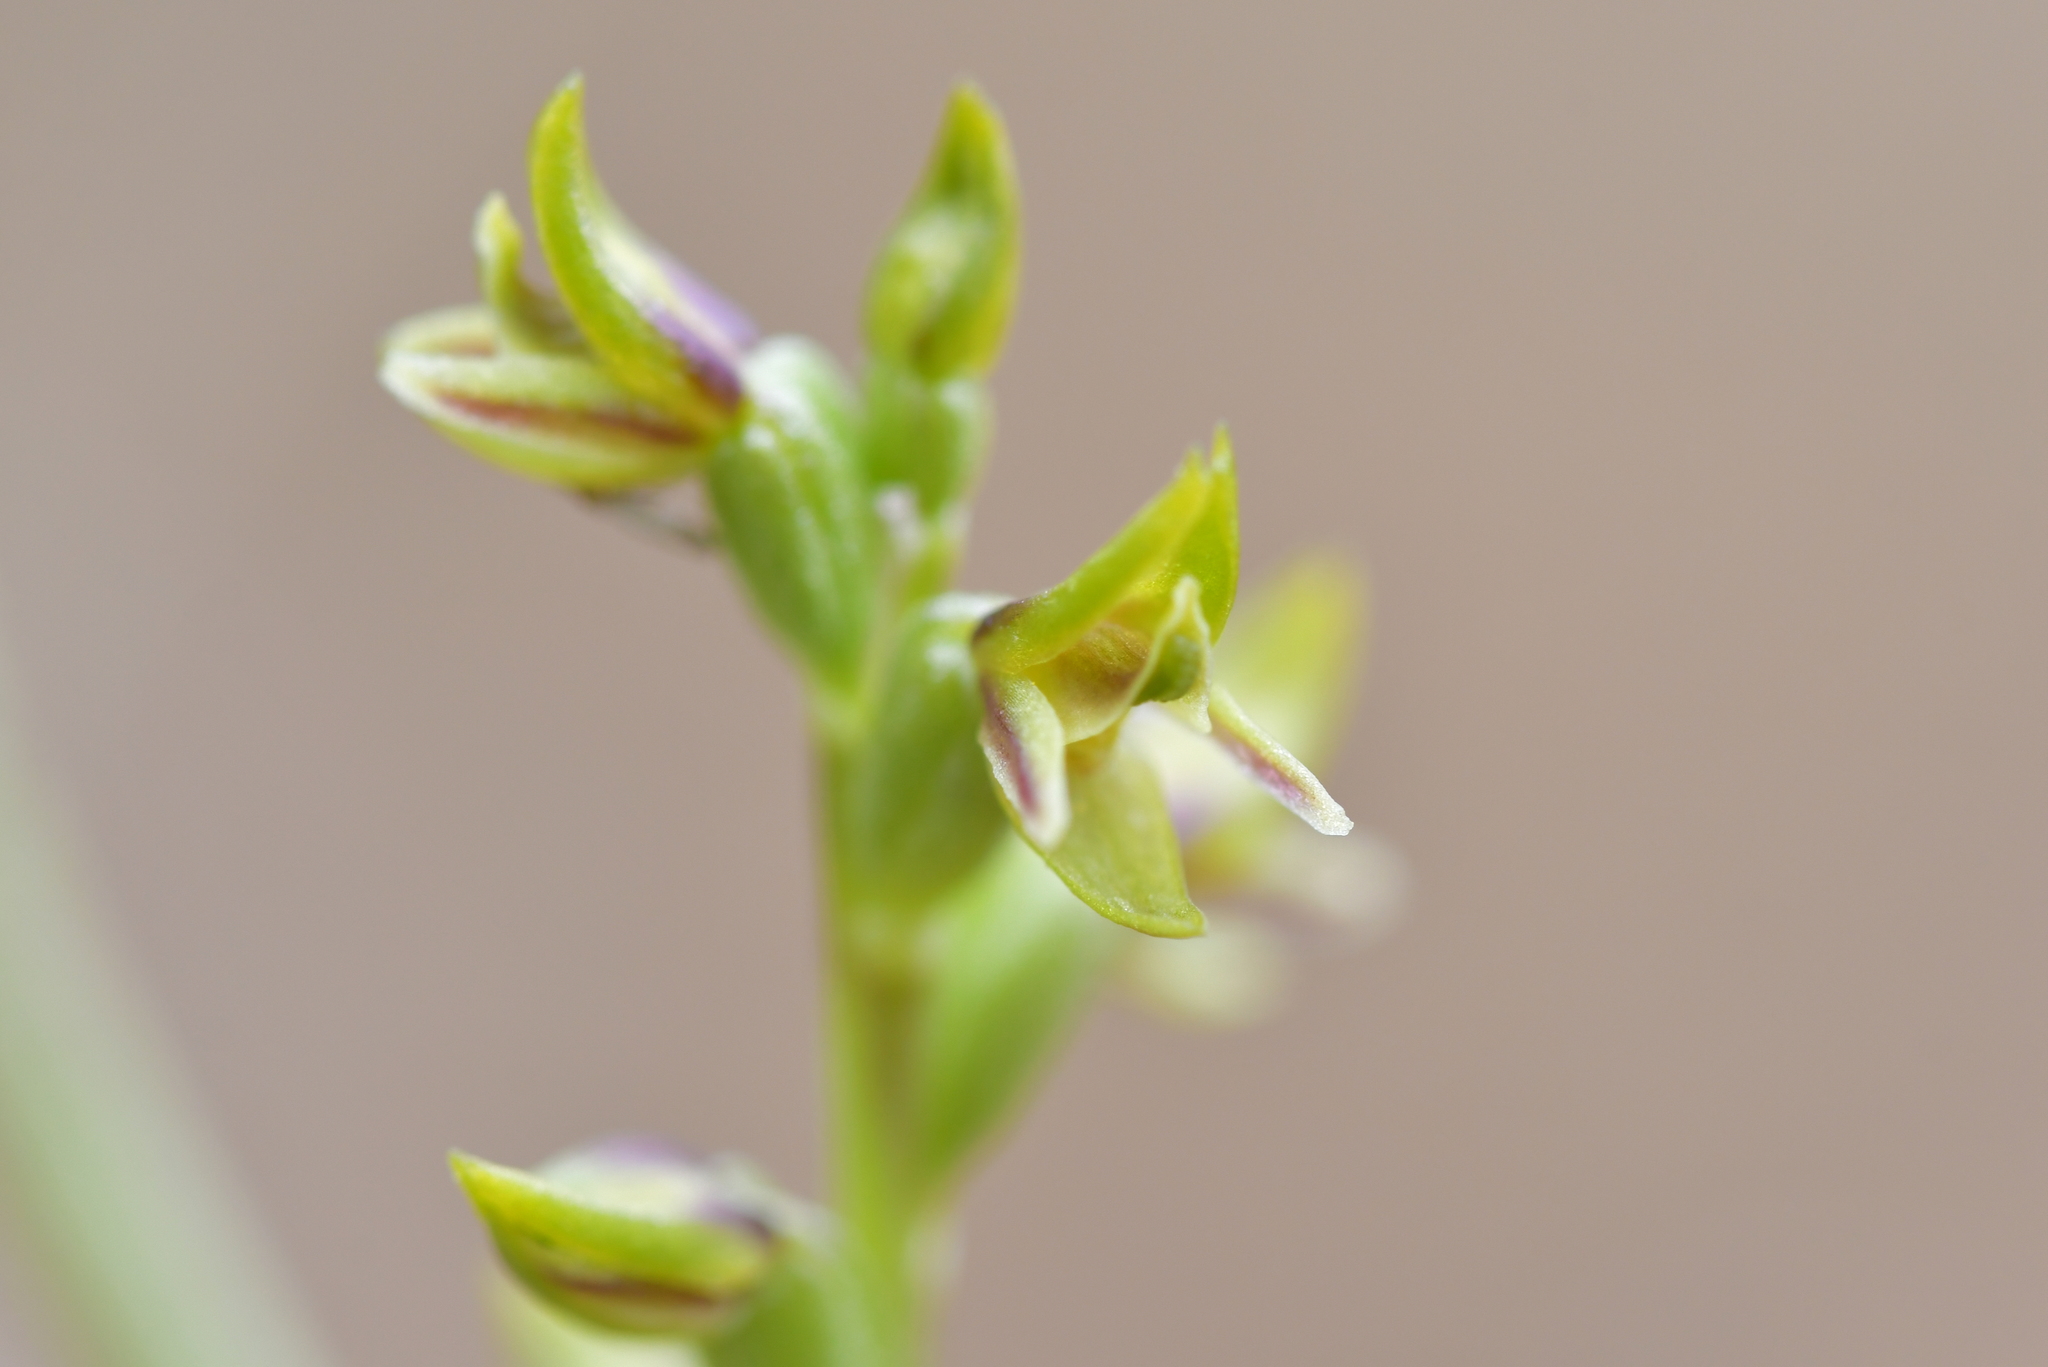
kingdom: Plantae
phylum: Tracheophyta
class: Liliopsida
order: Asparagales
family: Orchidaceae
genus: Prasophyllum
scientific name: Prasophyllum colensoi
